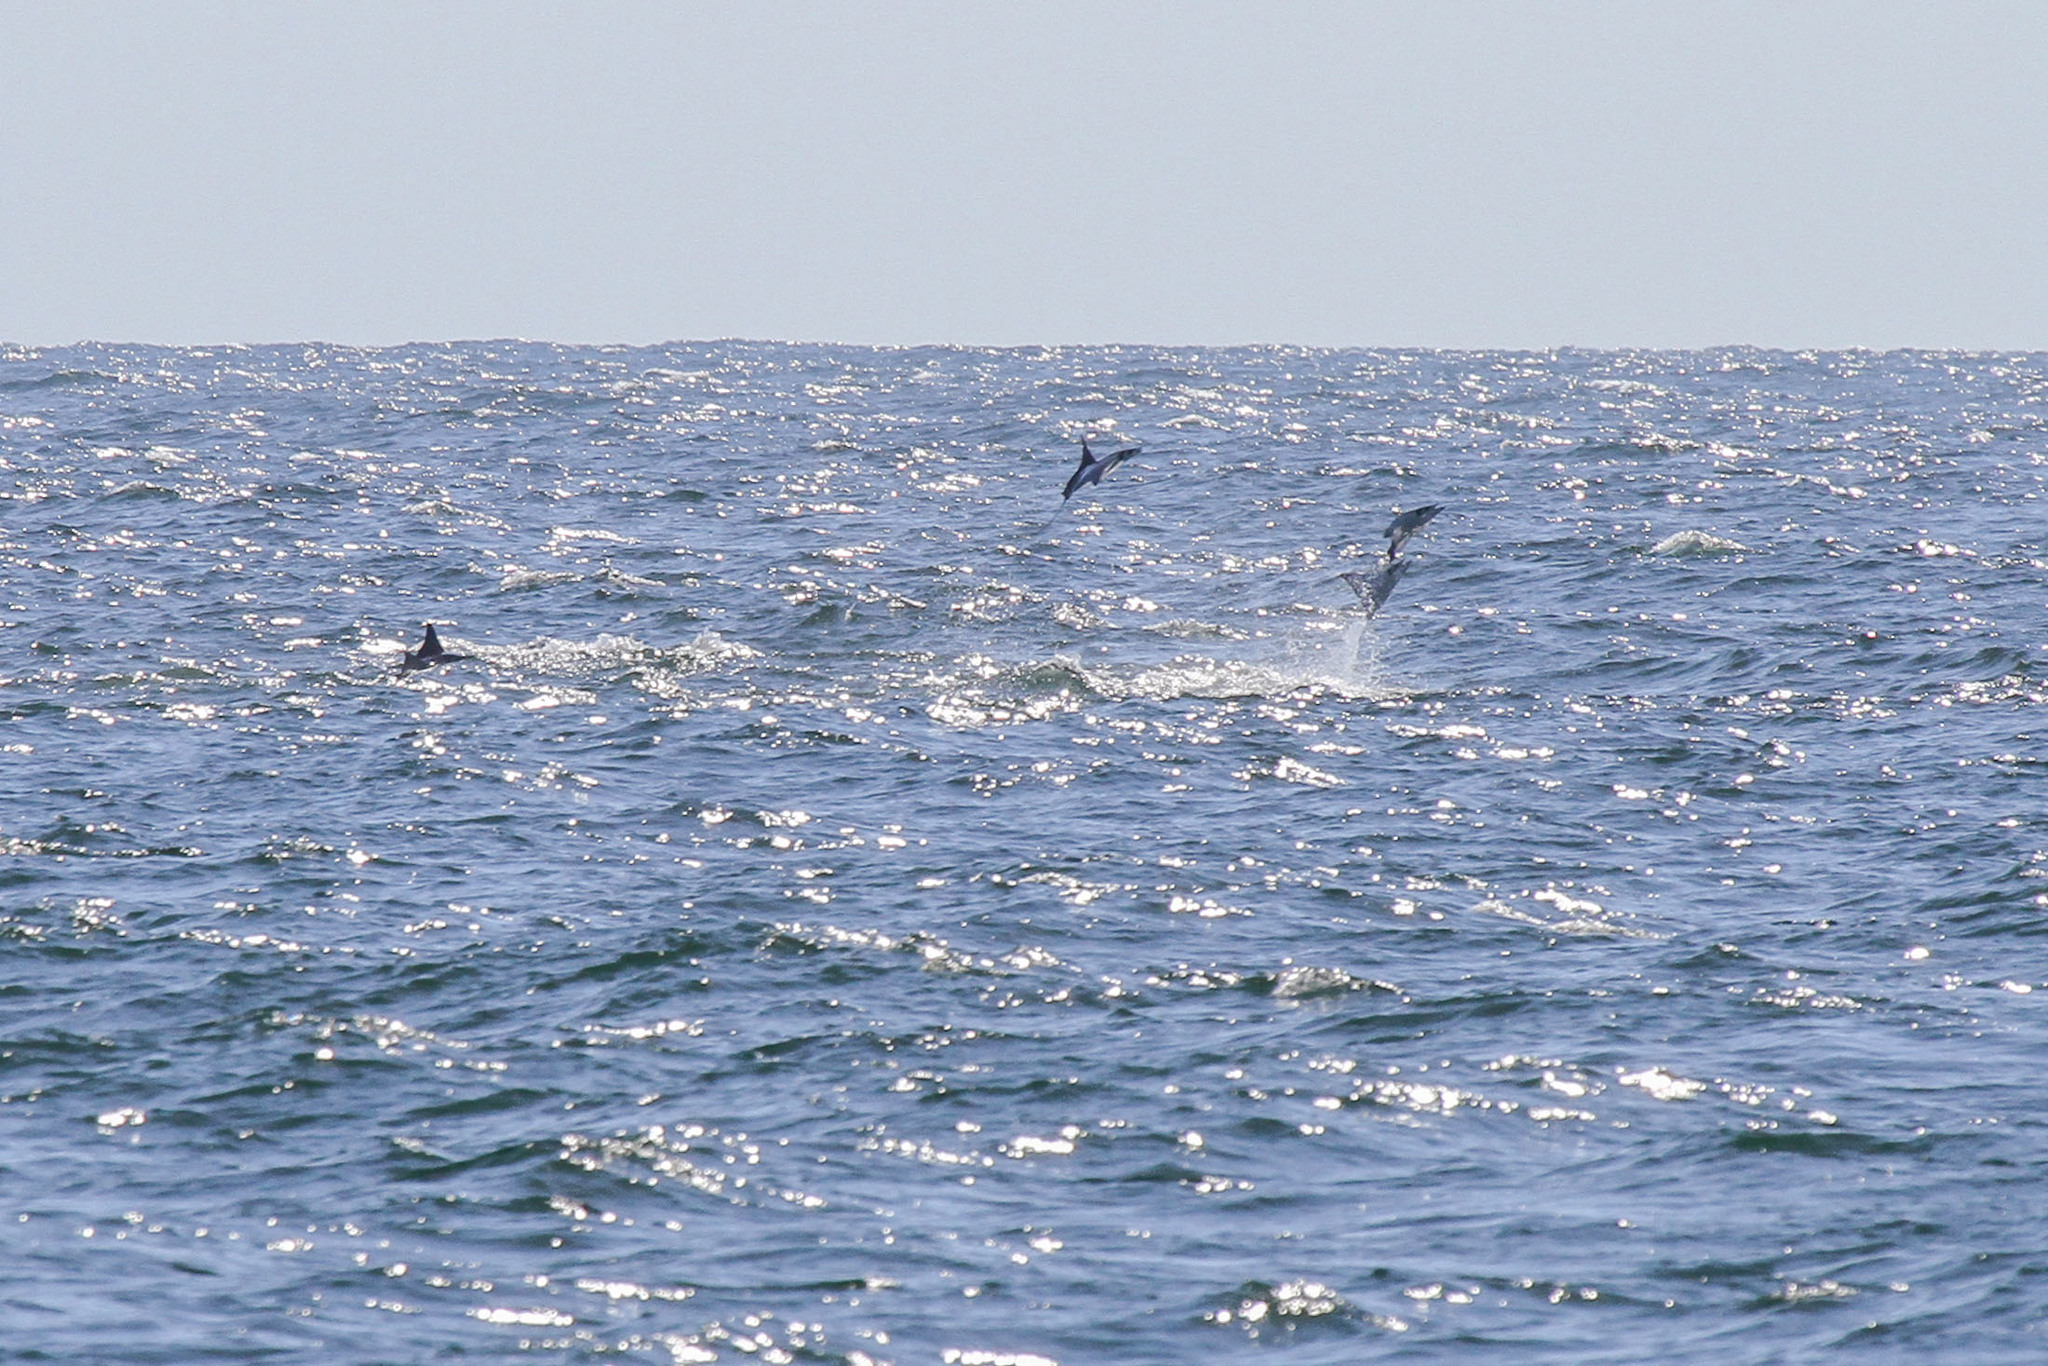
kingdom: Animalia
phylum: Chordata
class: Elasmobranchii
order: Myliobatiformes
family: Myliobatidae
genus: Mobula
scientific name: Mobula
